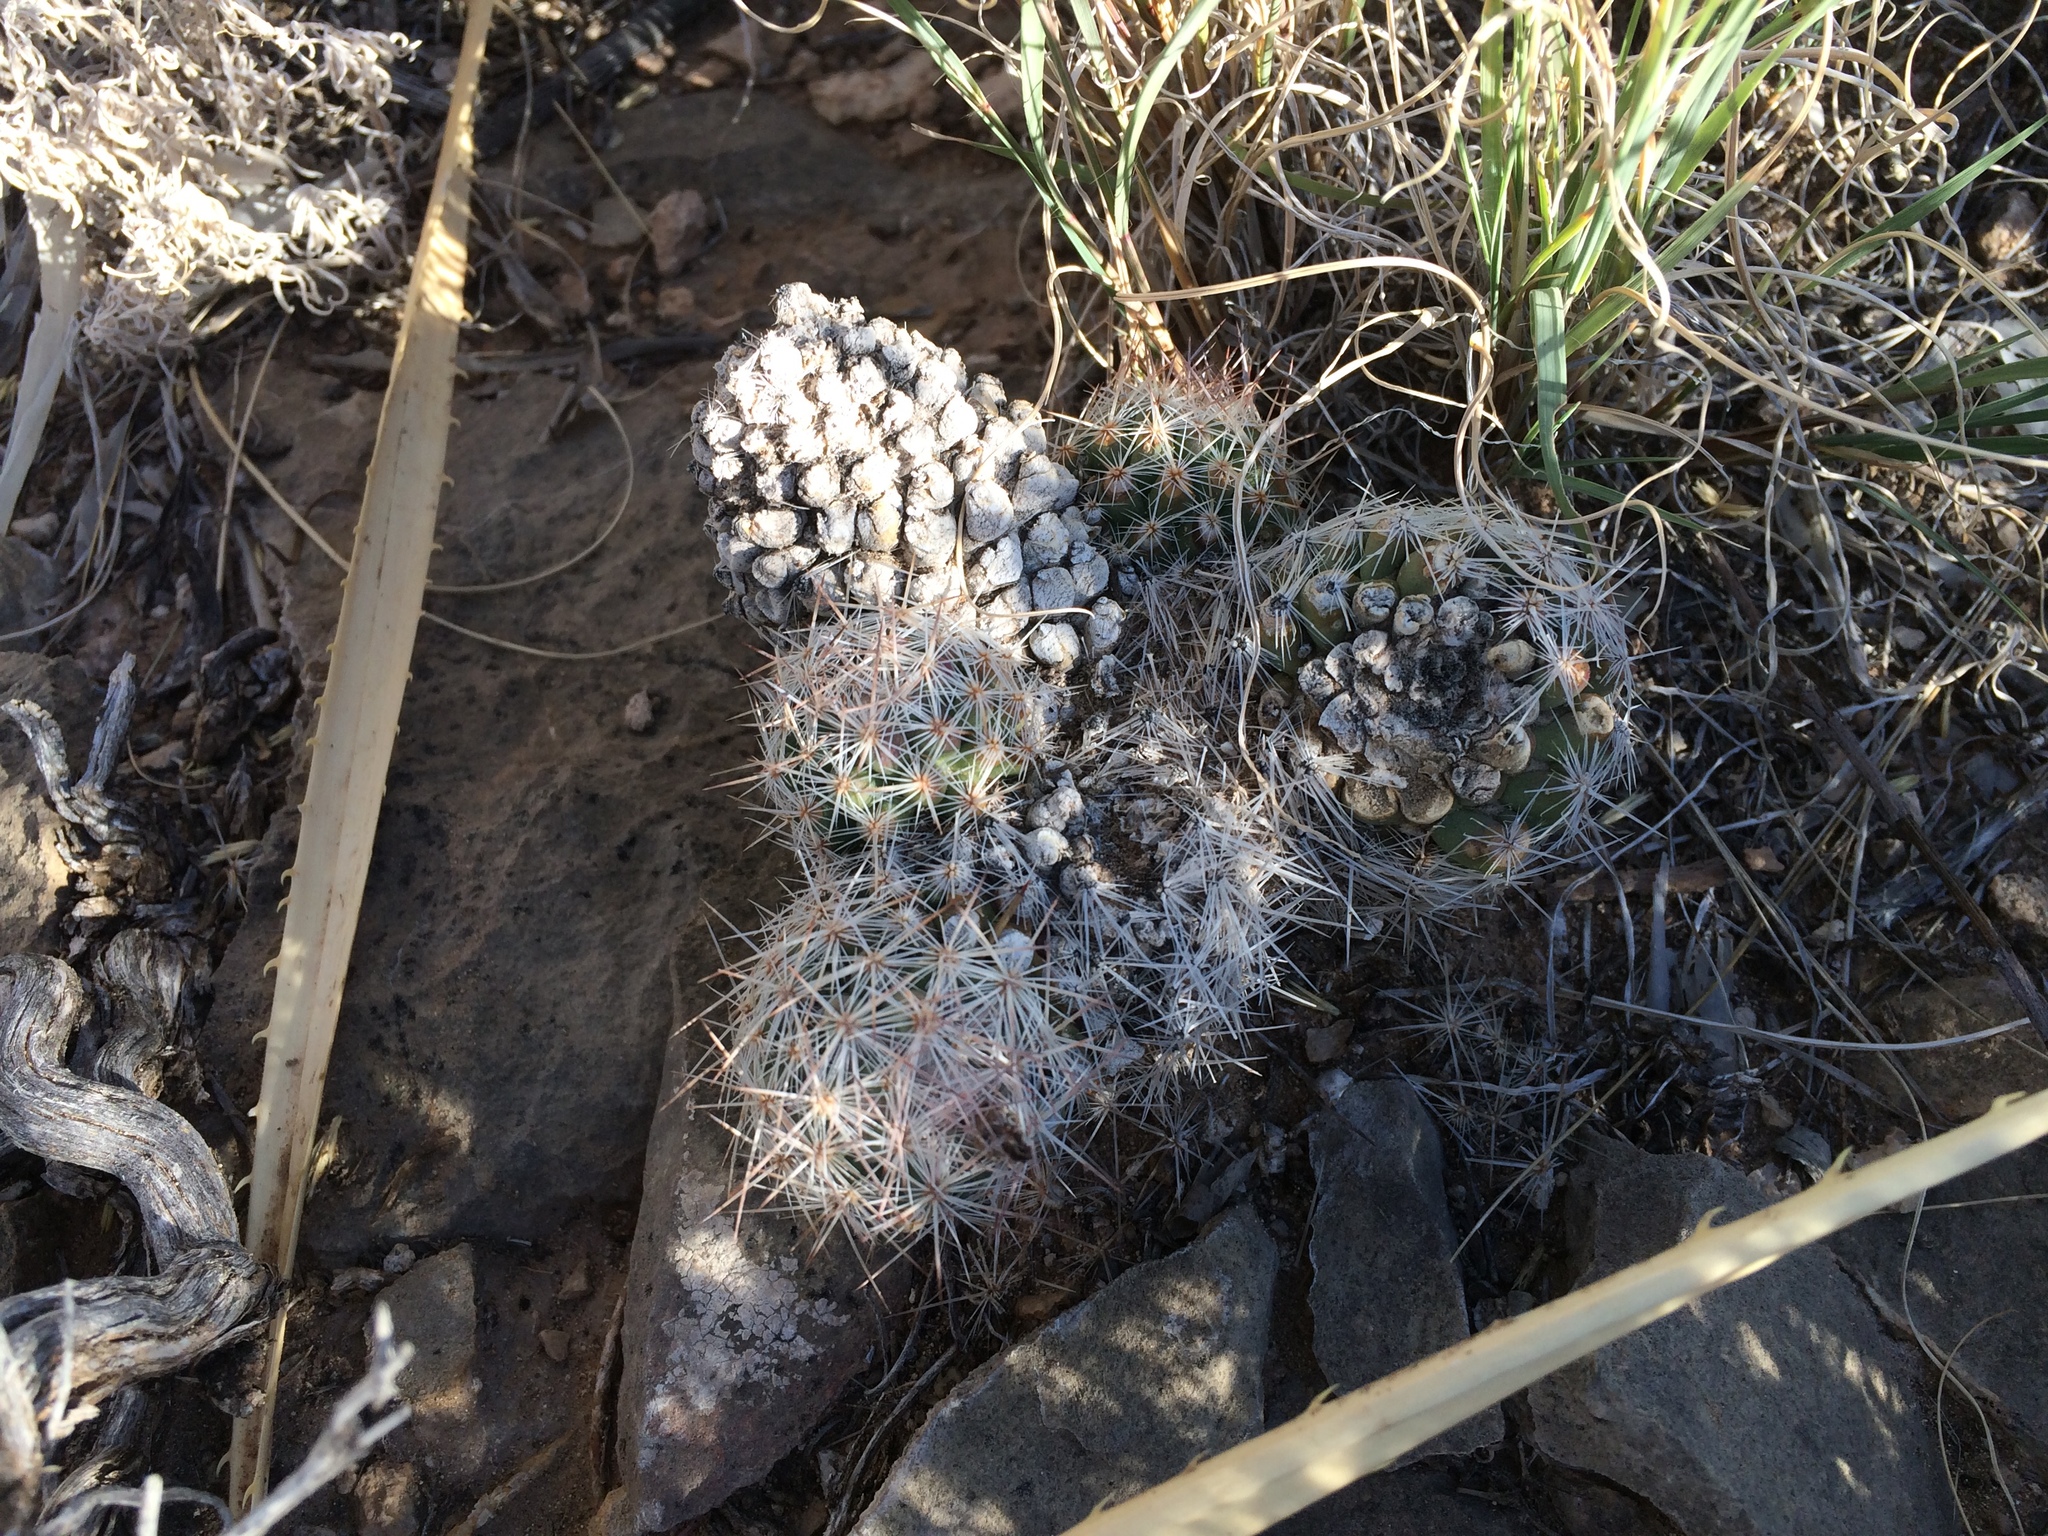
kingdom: Plantae
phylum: Tracheophyta
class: Magnoliopsida
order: Caryophyllales
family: Cactaceae
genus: Pelecyphora
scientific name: Pelecyphora tuberculosa
